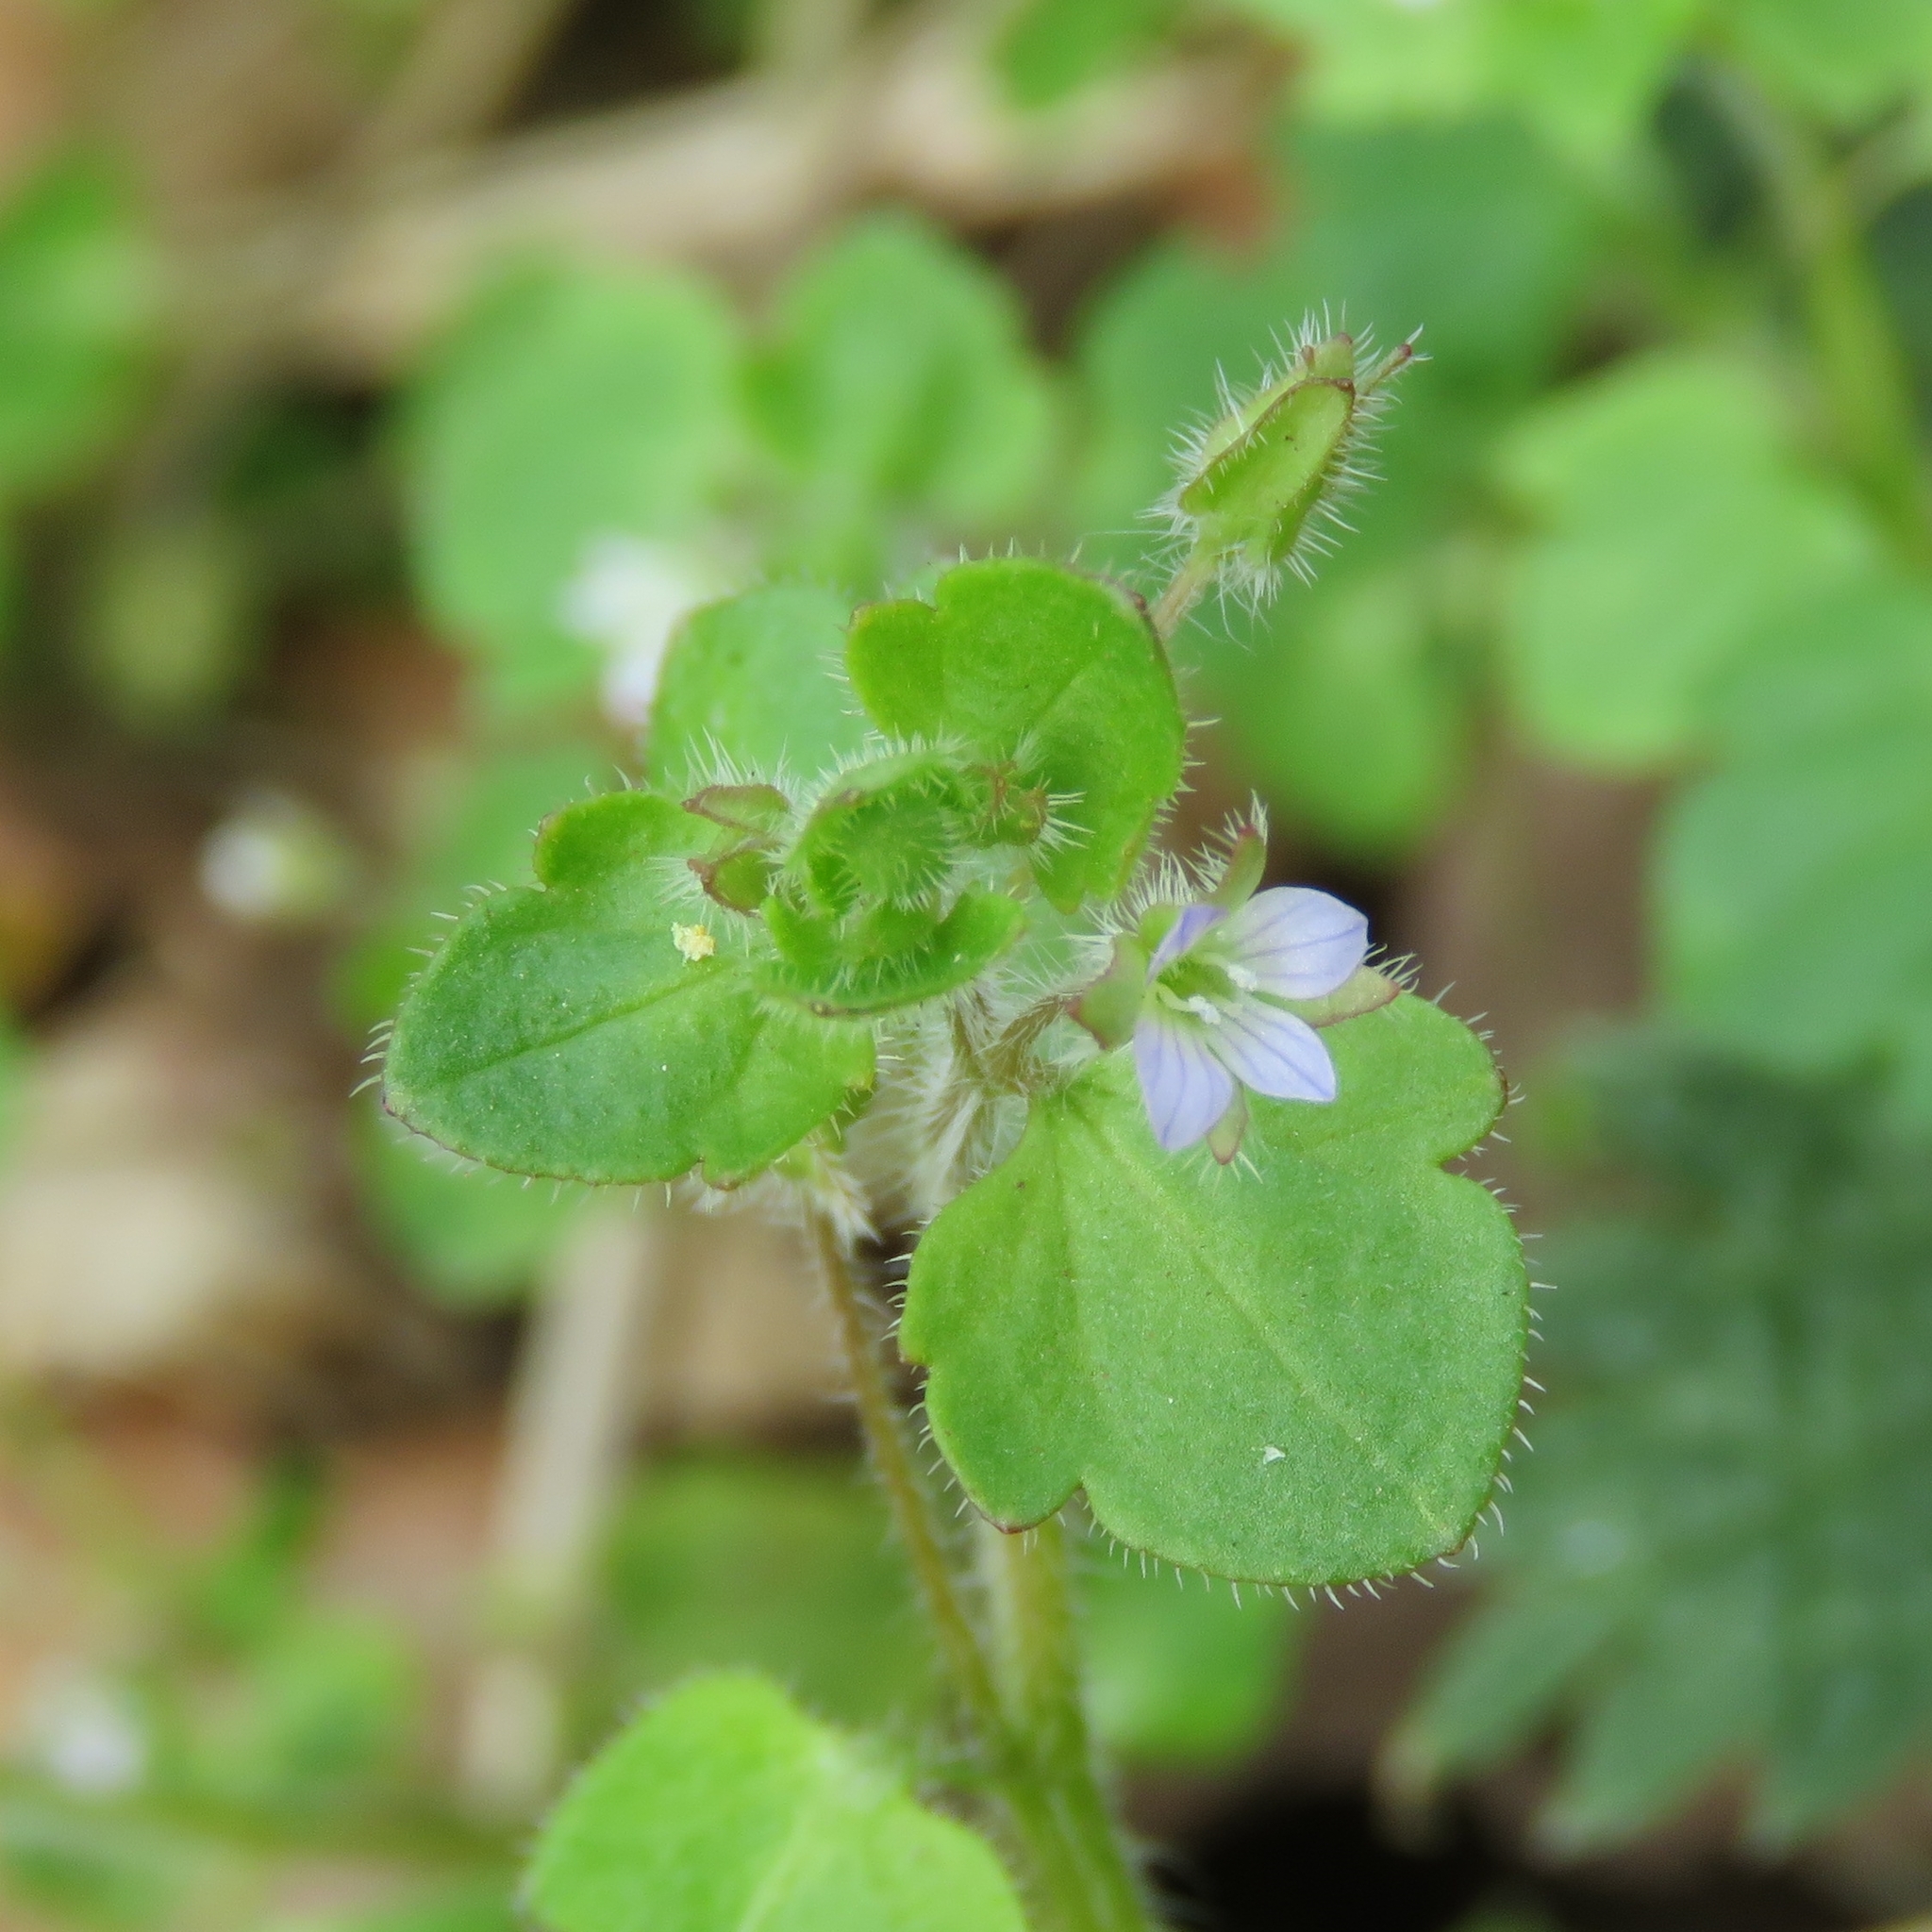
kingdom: Plantae
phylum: Tracheophyta
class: Magnoliopsida
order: Lamiales
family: Plantaginaceae
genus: Veronica
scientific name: Veronica hederifolia
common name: Ivy-leaved speedwell
